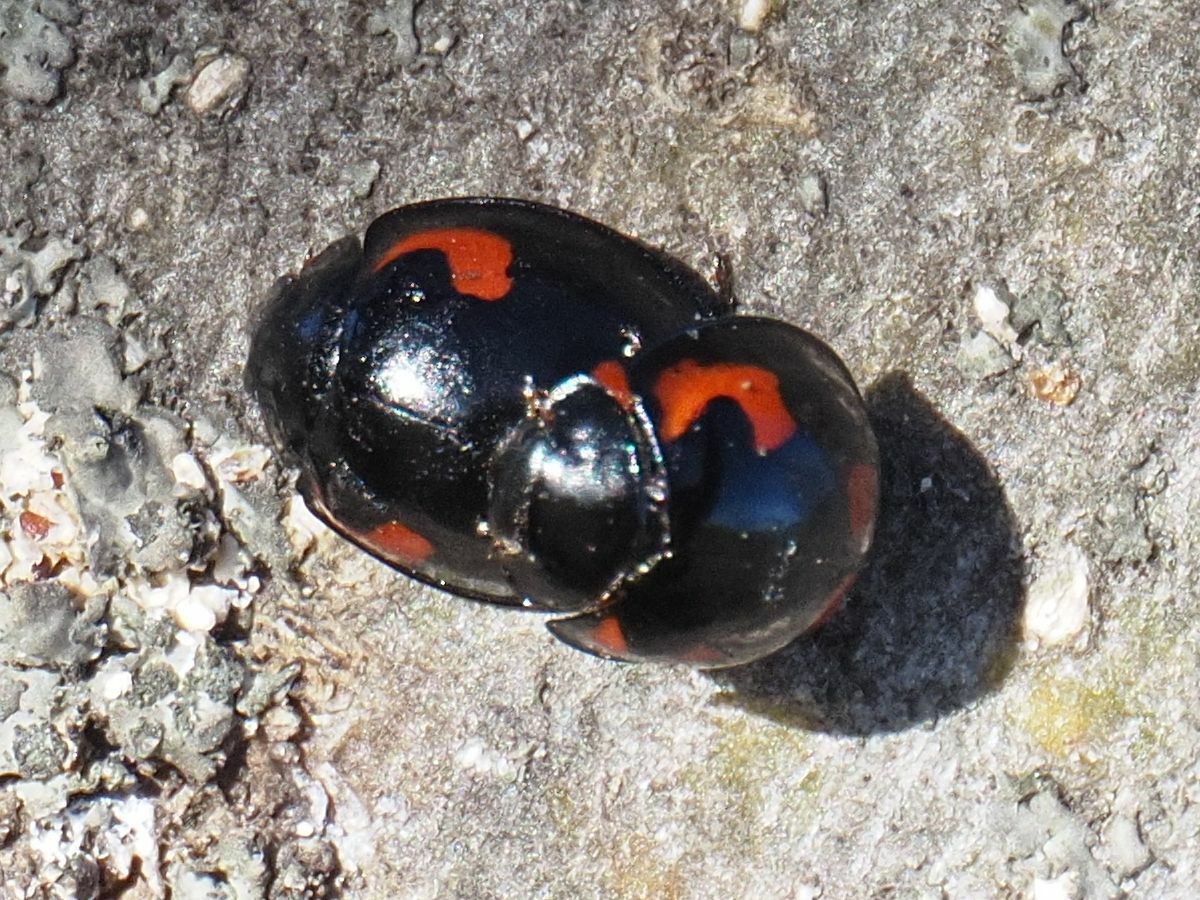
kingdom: Animalia
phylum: Arthropoda
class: Insecta
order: Coleoptera
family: Coccinellidae
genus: Brumus
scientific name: Brumus quadripustulatus
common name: Ladybird beetle
